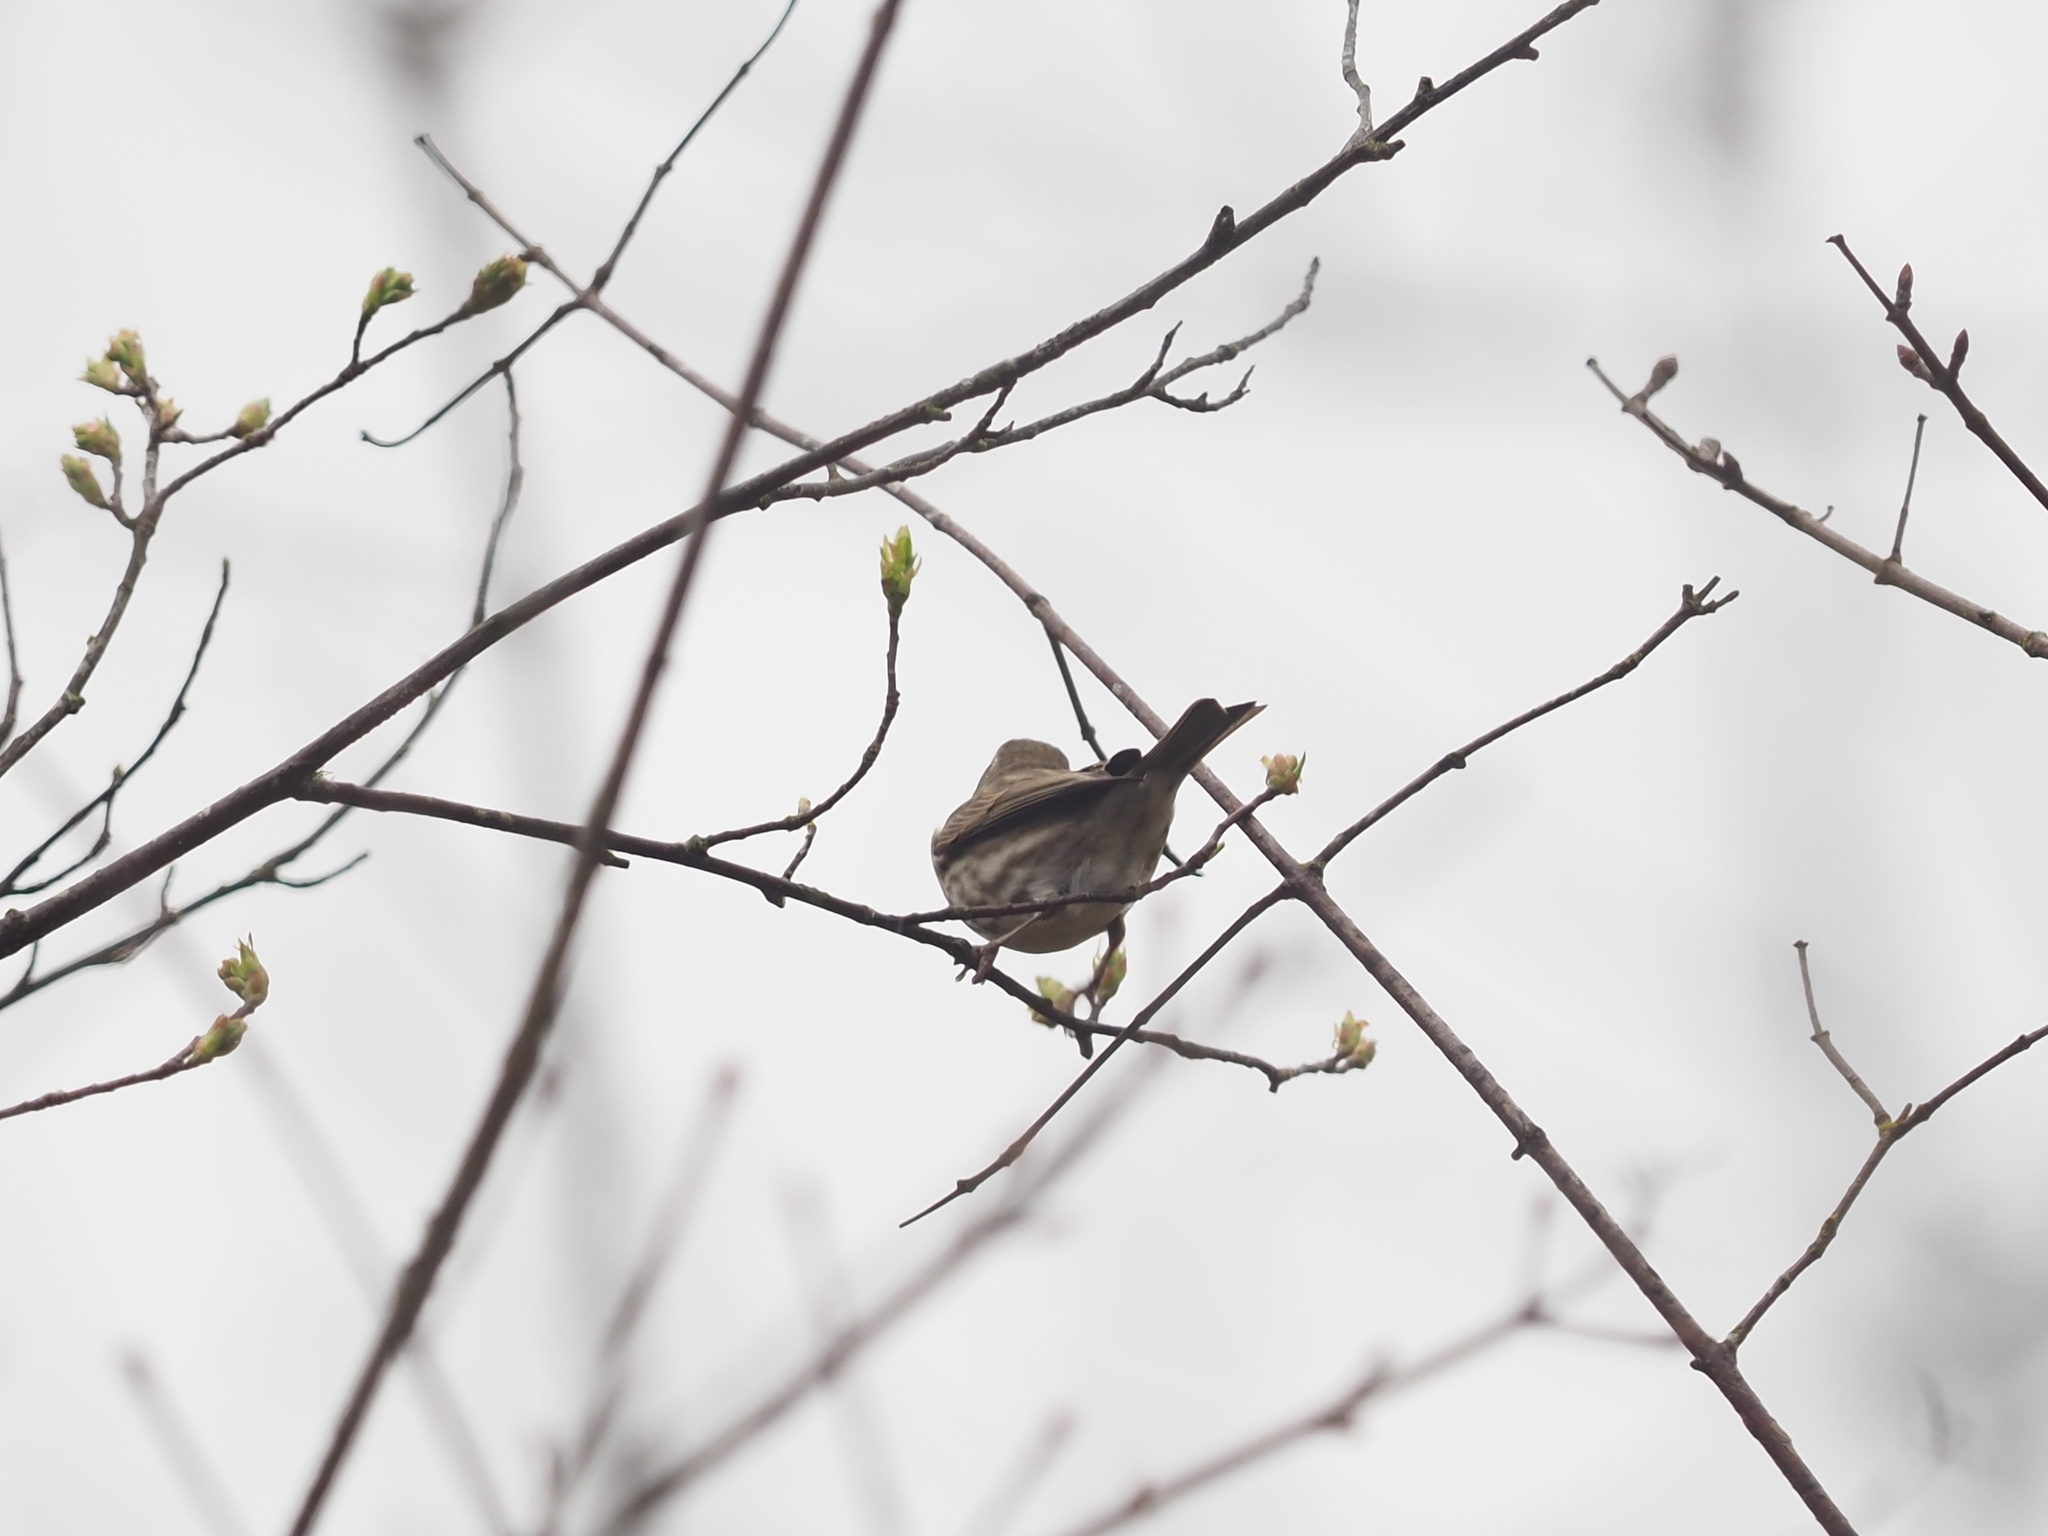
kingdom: Animalia
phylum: Chordata
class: Aves
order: Passeriformes
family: Fringillidae
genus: Haemorhous
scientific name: Haemorhous purpureus
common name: Purple finch
